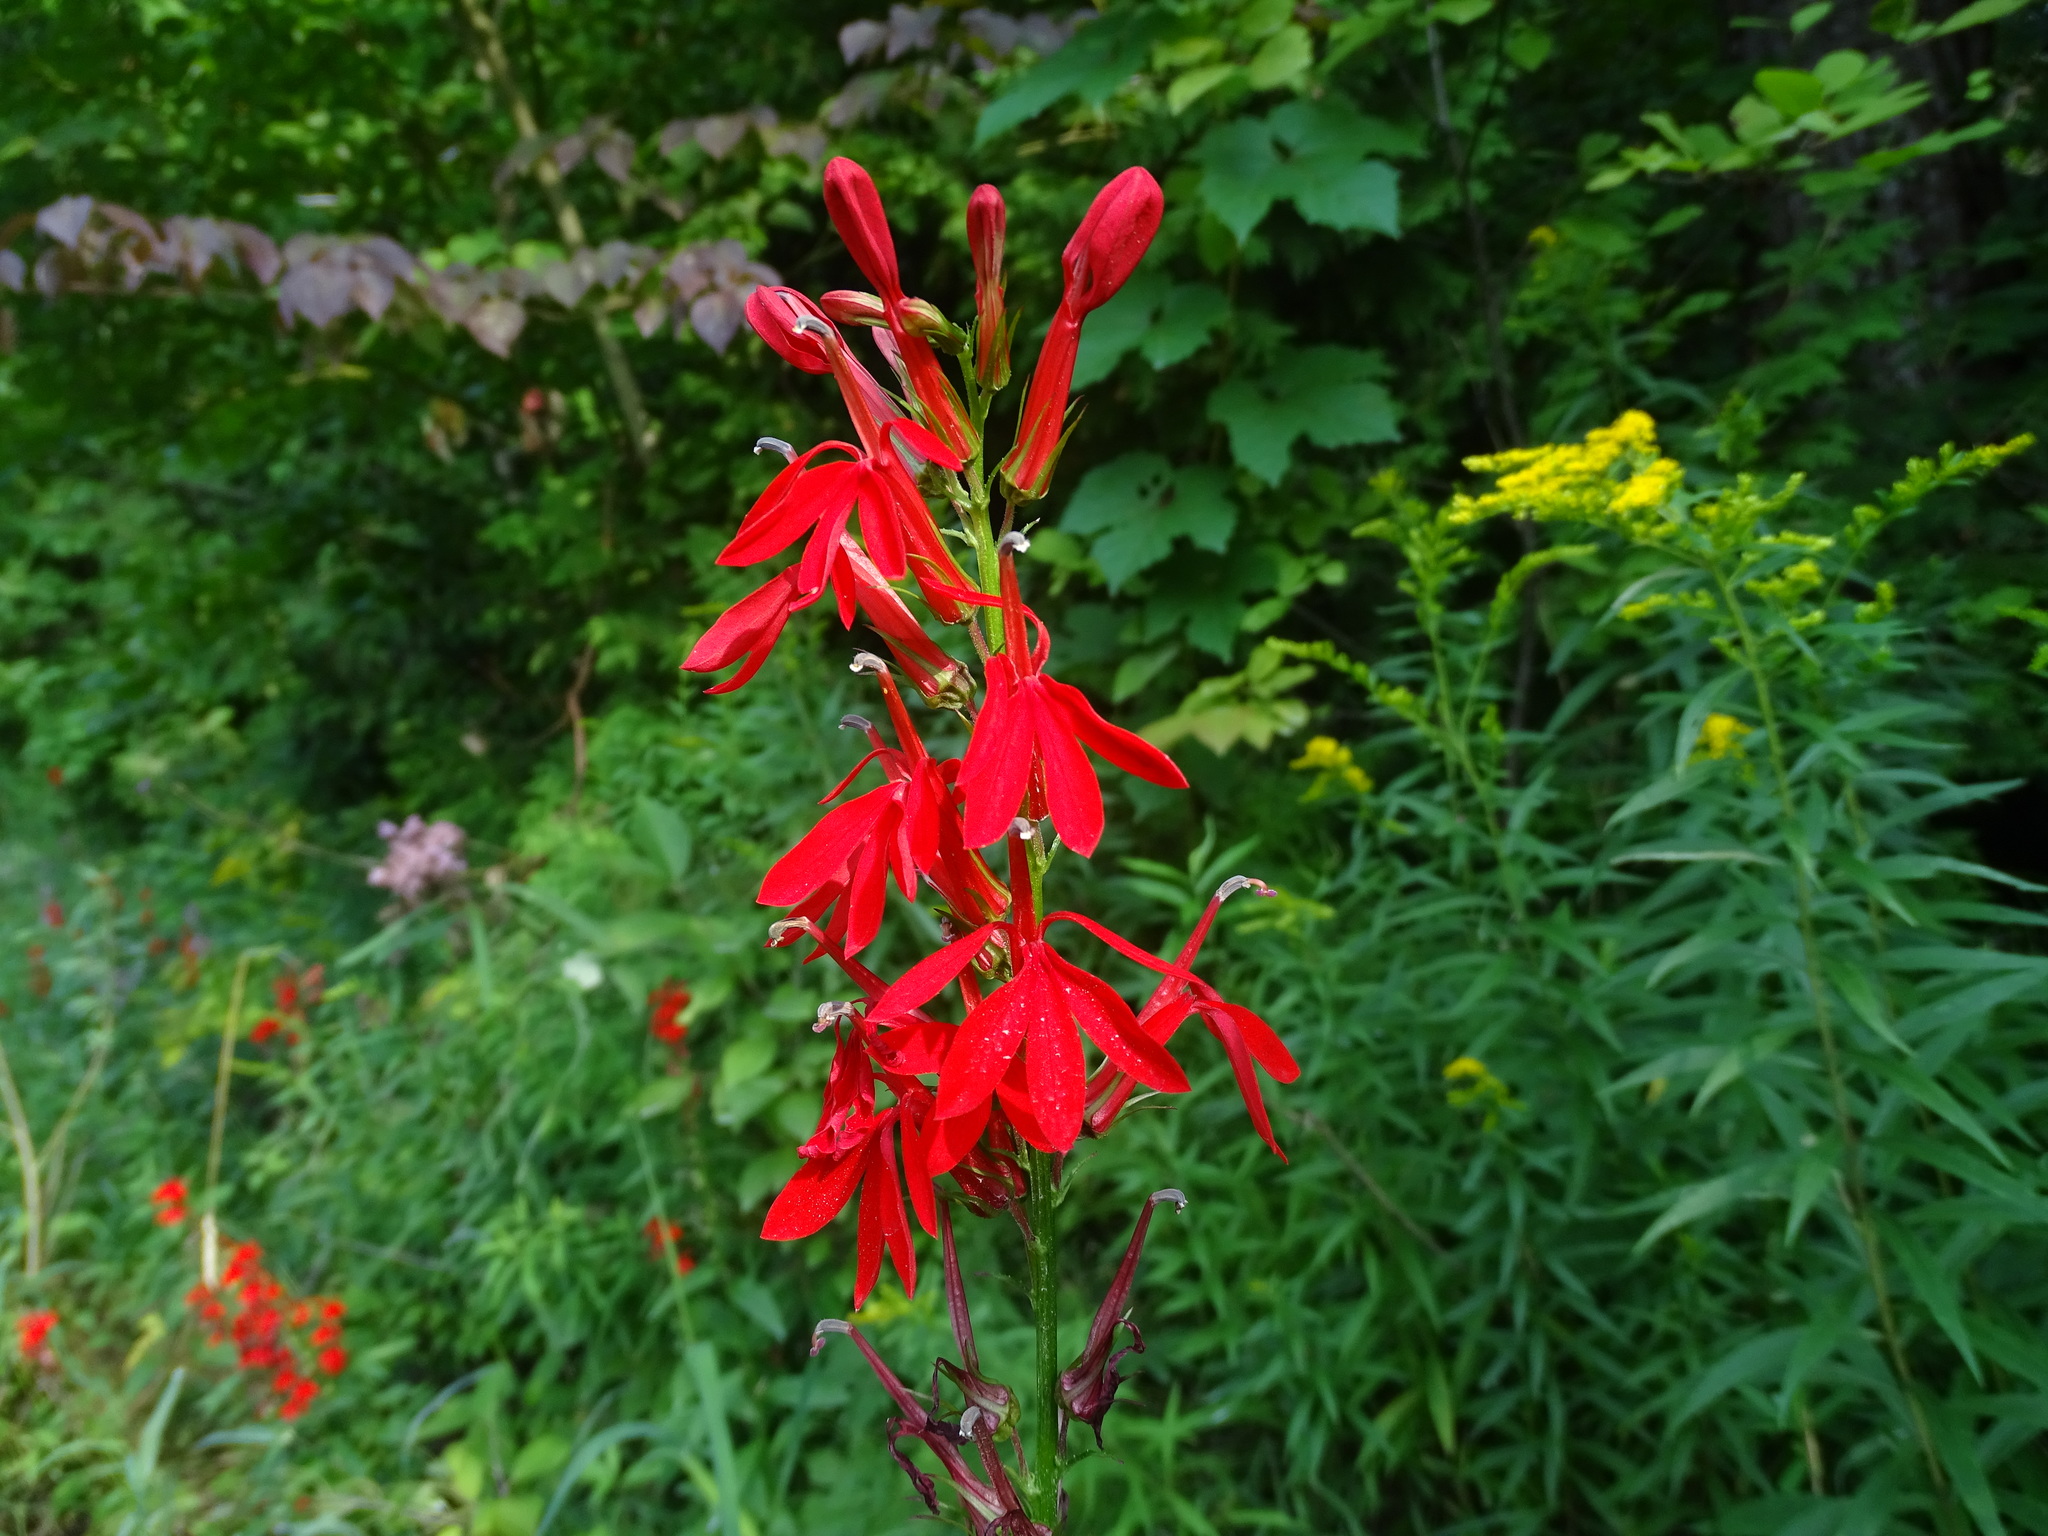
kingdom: Plantae
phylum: Tracheophyta
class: Magnoliopsida
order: Asterales
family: Campanulaceae
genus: Lobelia
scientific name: Lobelia cardinalis
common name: Cardinal flower
